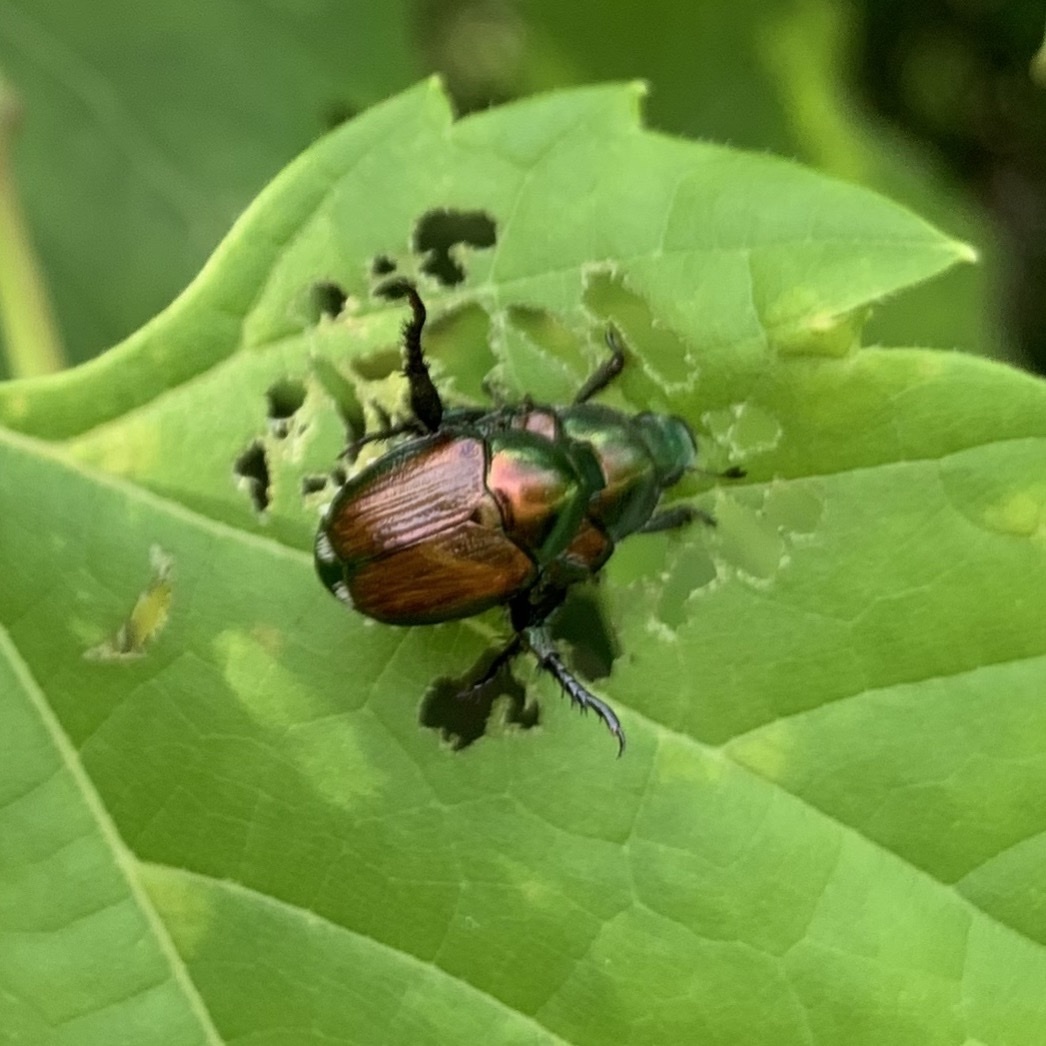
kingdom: Animalia
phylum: Arthropoda
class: Insecta
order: Coleoptera
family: Scarabaeidae
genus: Popillia
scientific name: Popillia japonica
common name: Japanese beetle
